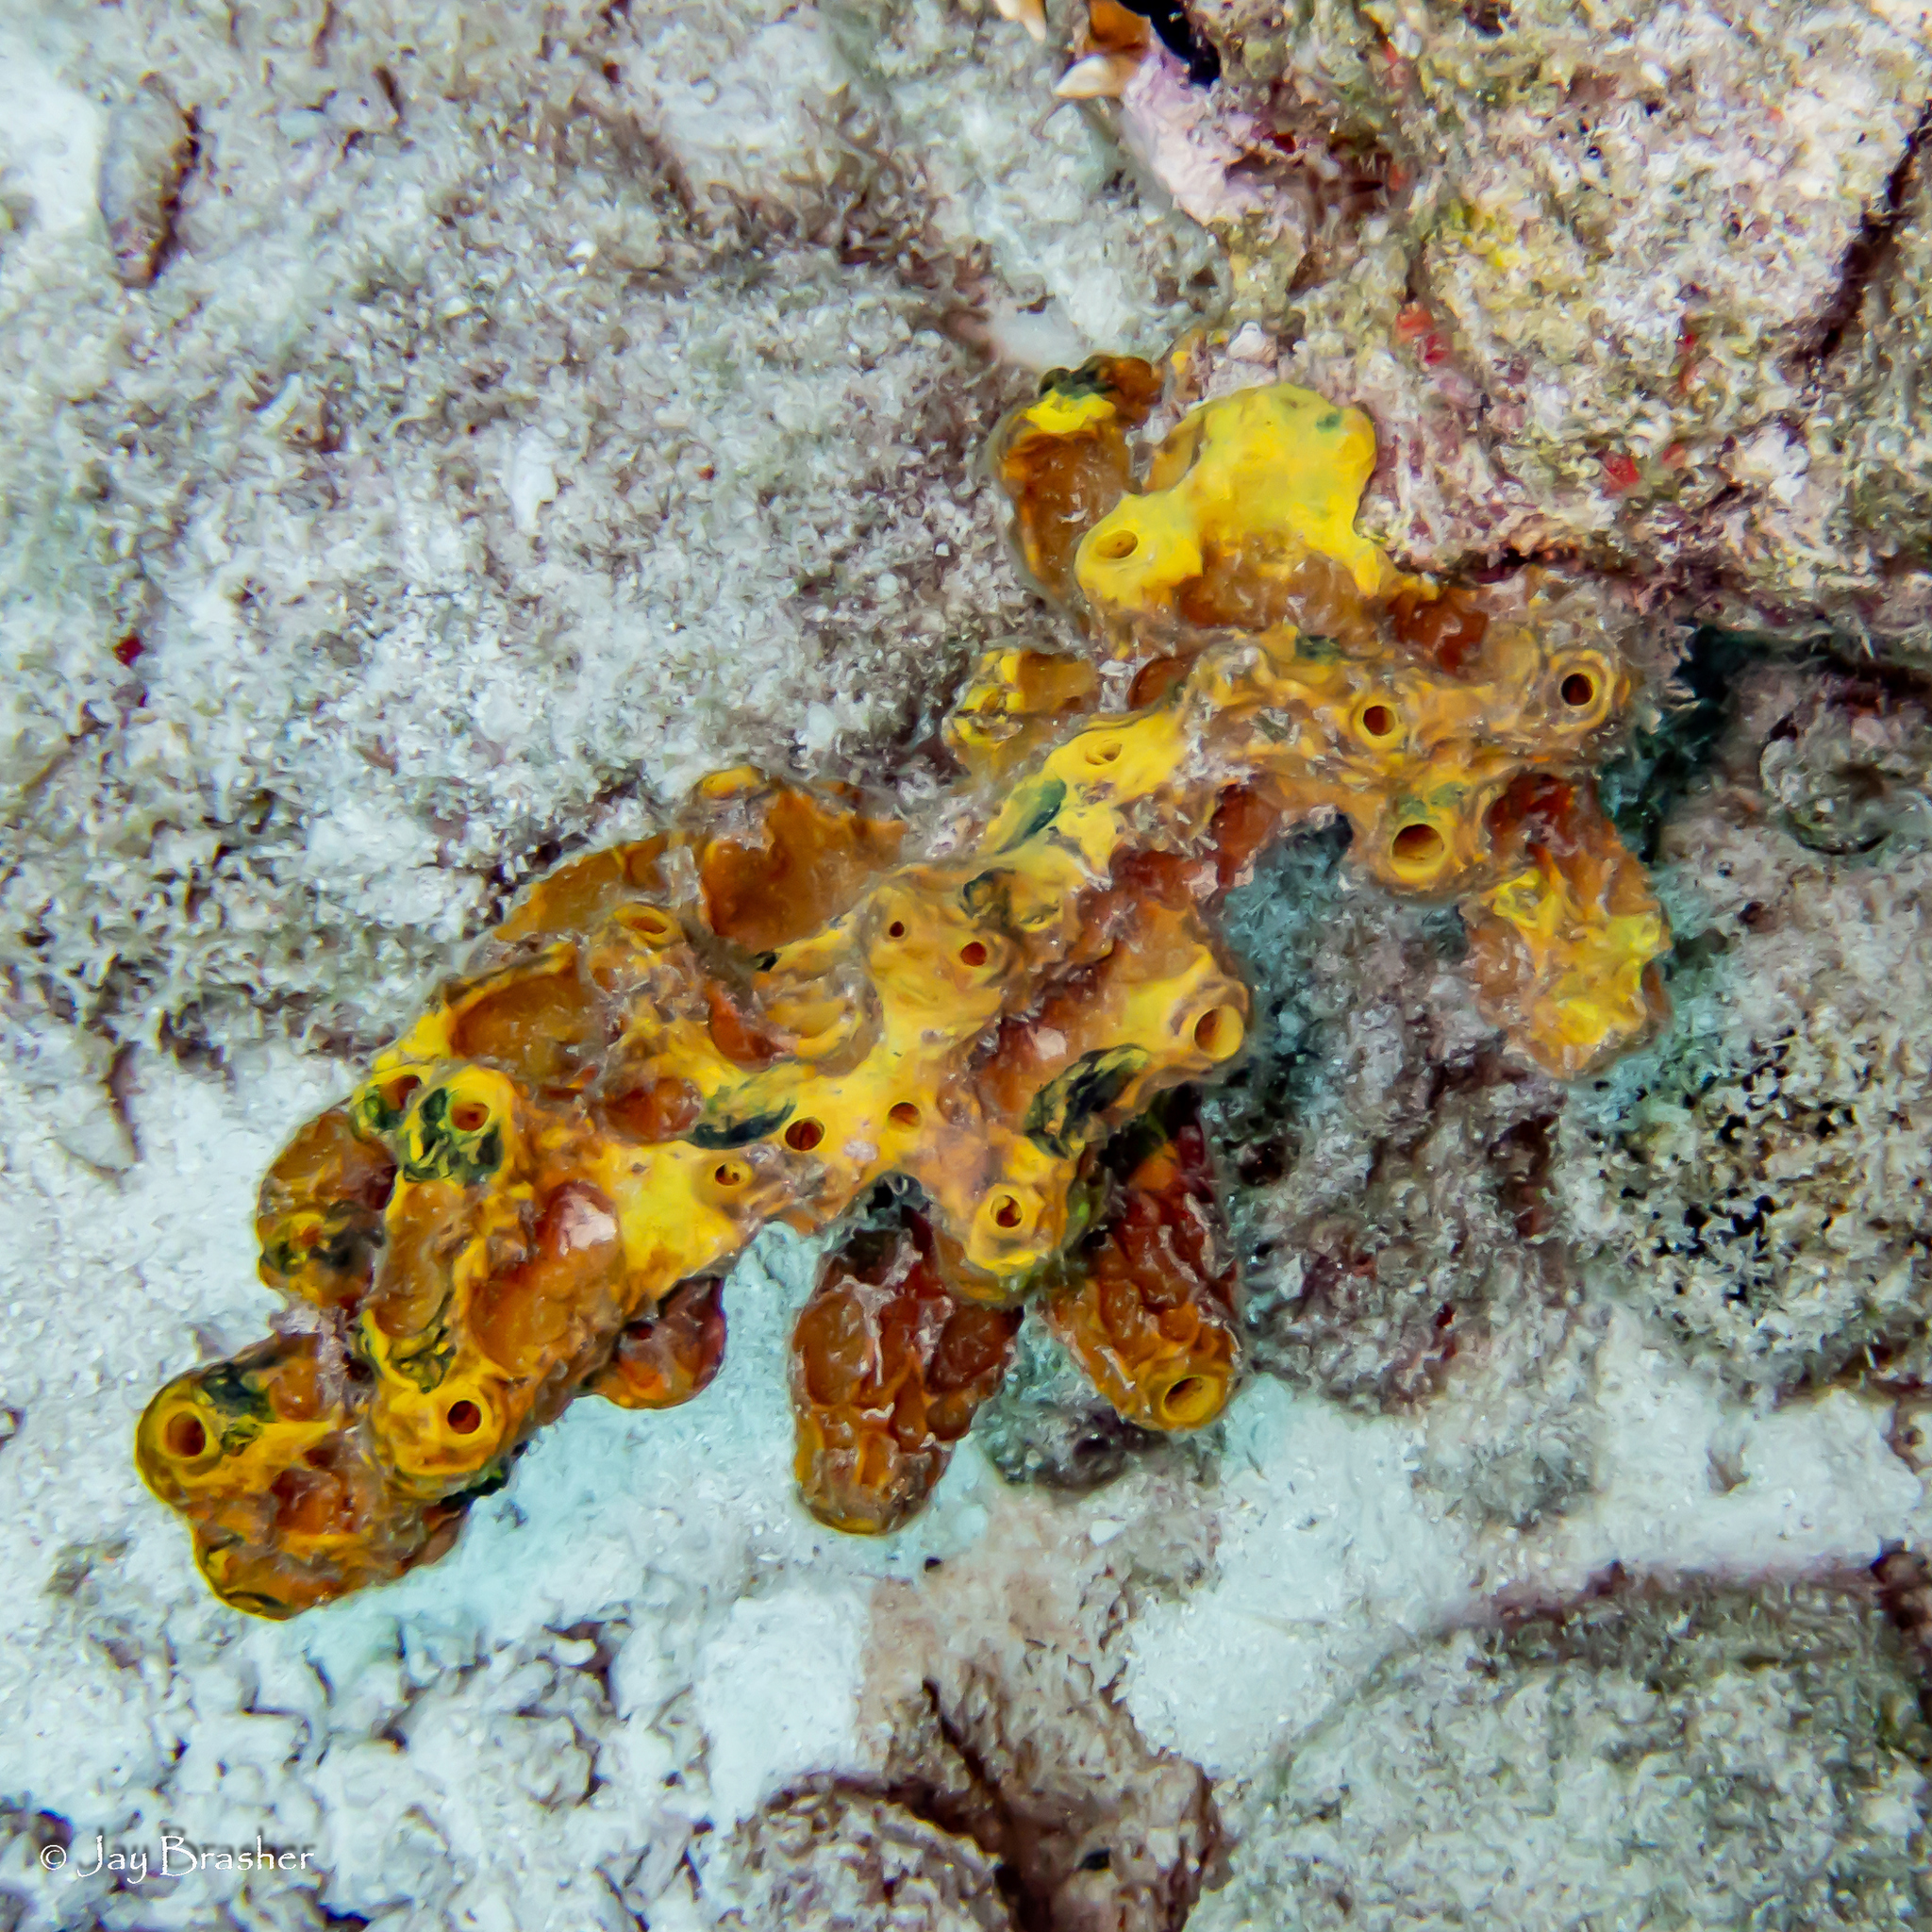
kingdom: Animalia
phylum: Porifera
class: Demospongiae
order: Verongiida
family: Aplysinidae
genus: Verongula
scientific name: Verongula rigida
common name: Pitted sponge
